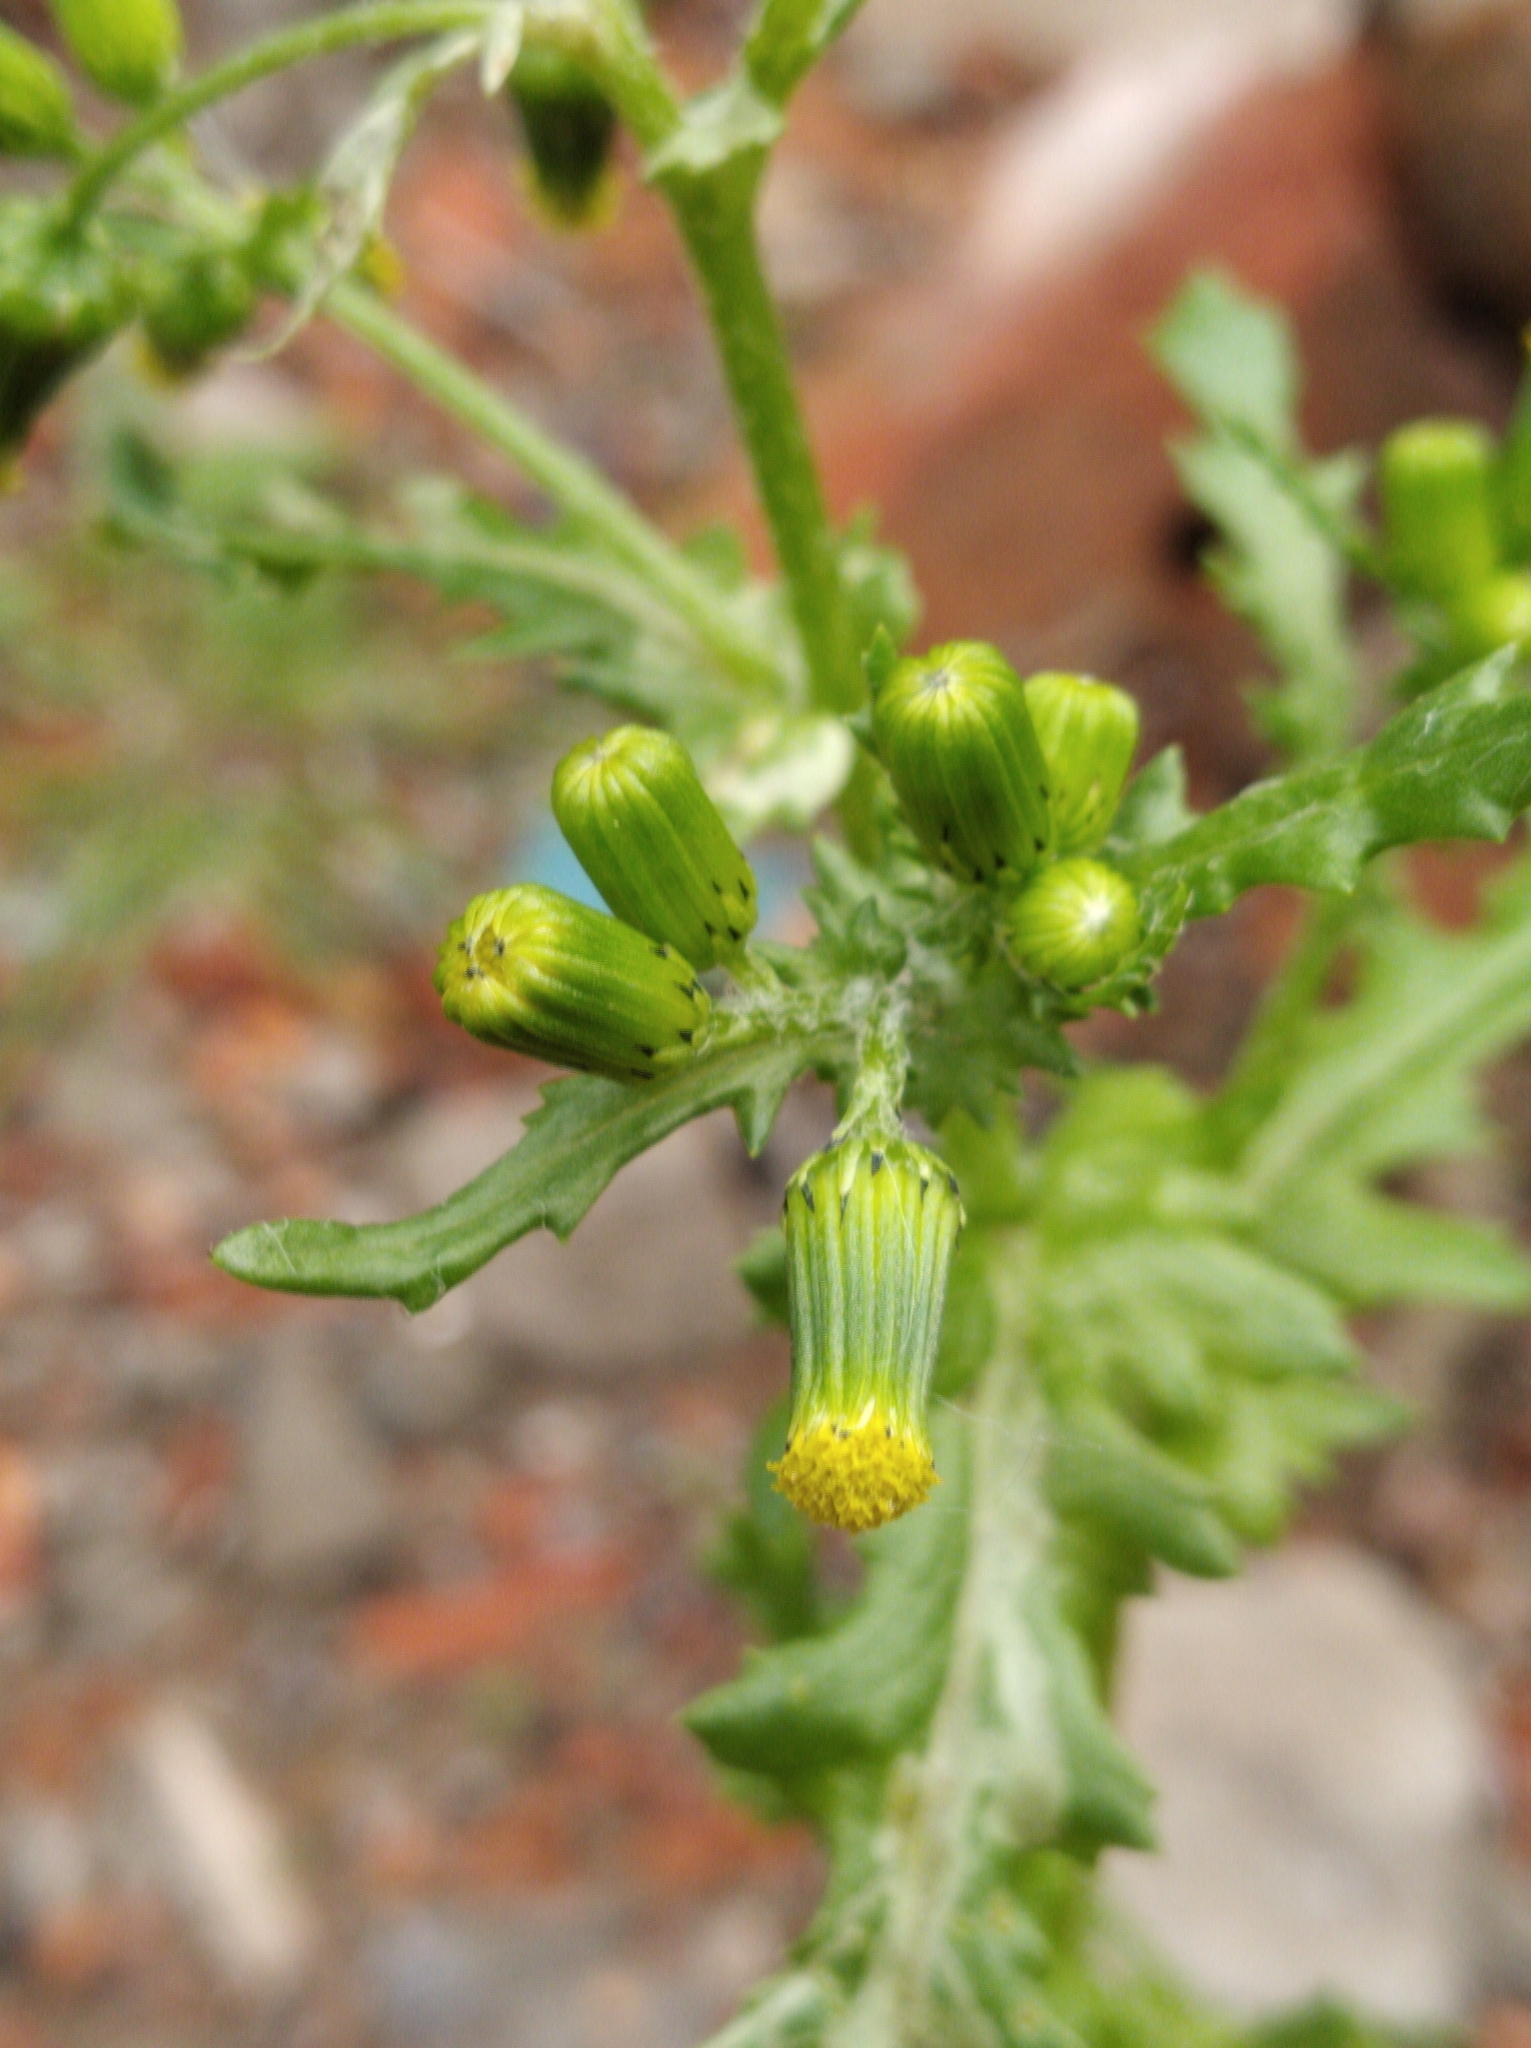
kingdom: Plantae
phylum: Tracheophyta
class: Magnoliopsida
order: Asterales
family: Asteraceae
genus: Senecio
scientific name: Senecio vulgaris
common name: Old-man-in-the-spring
